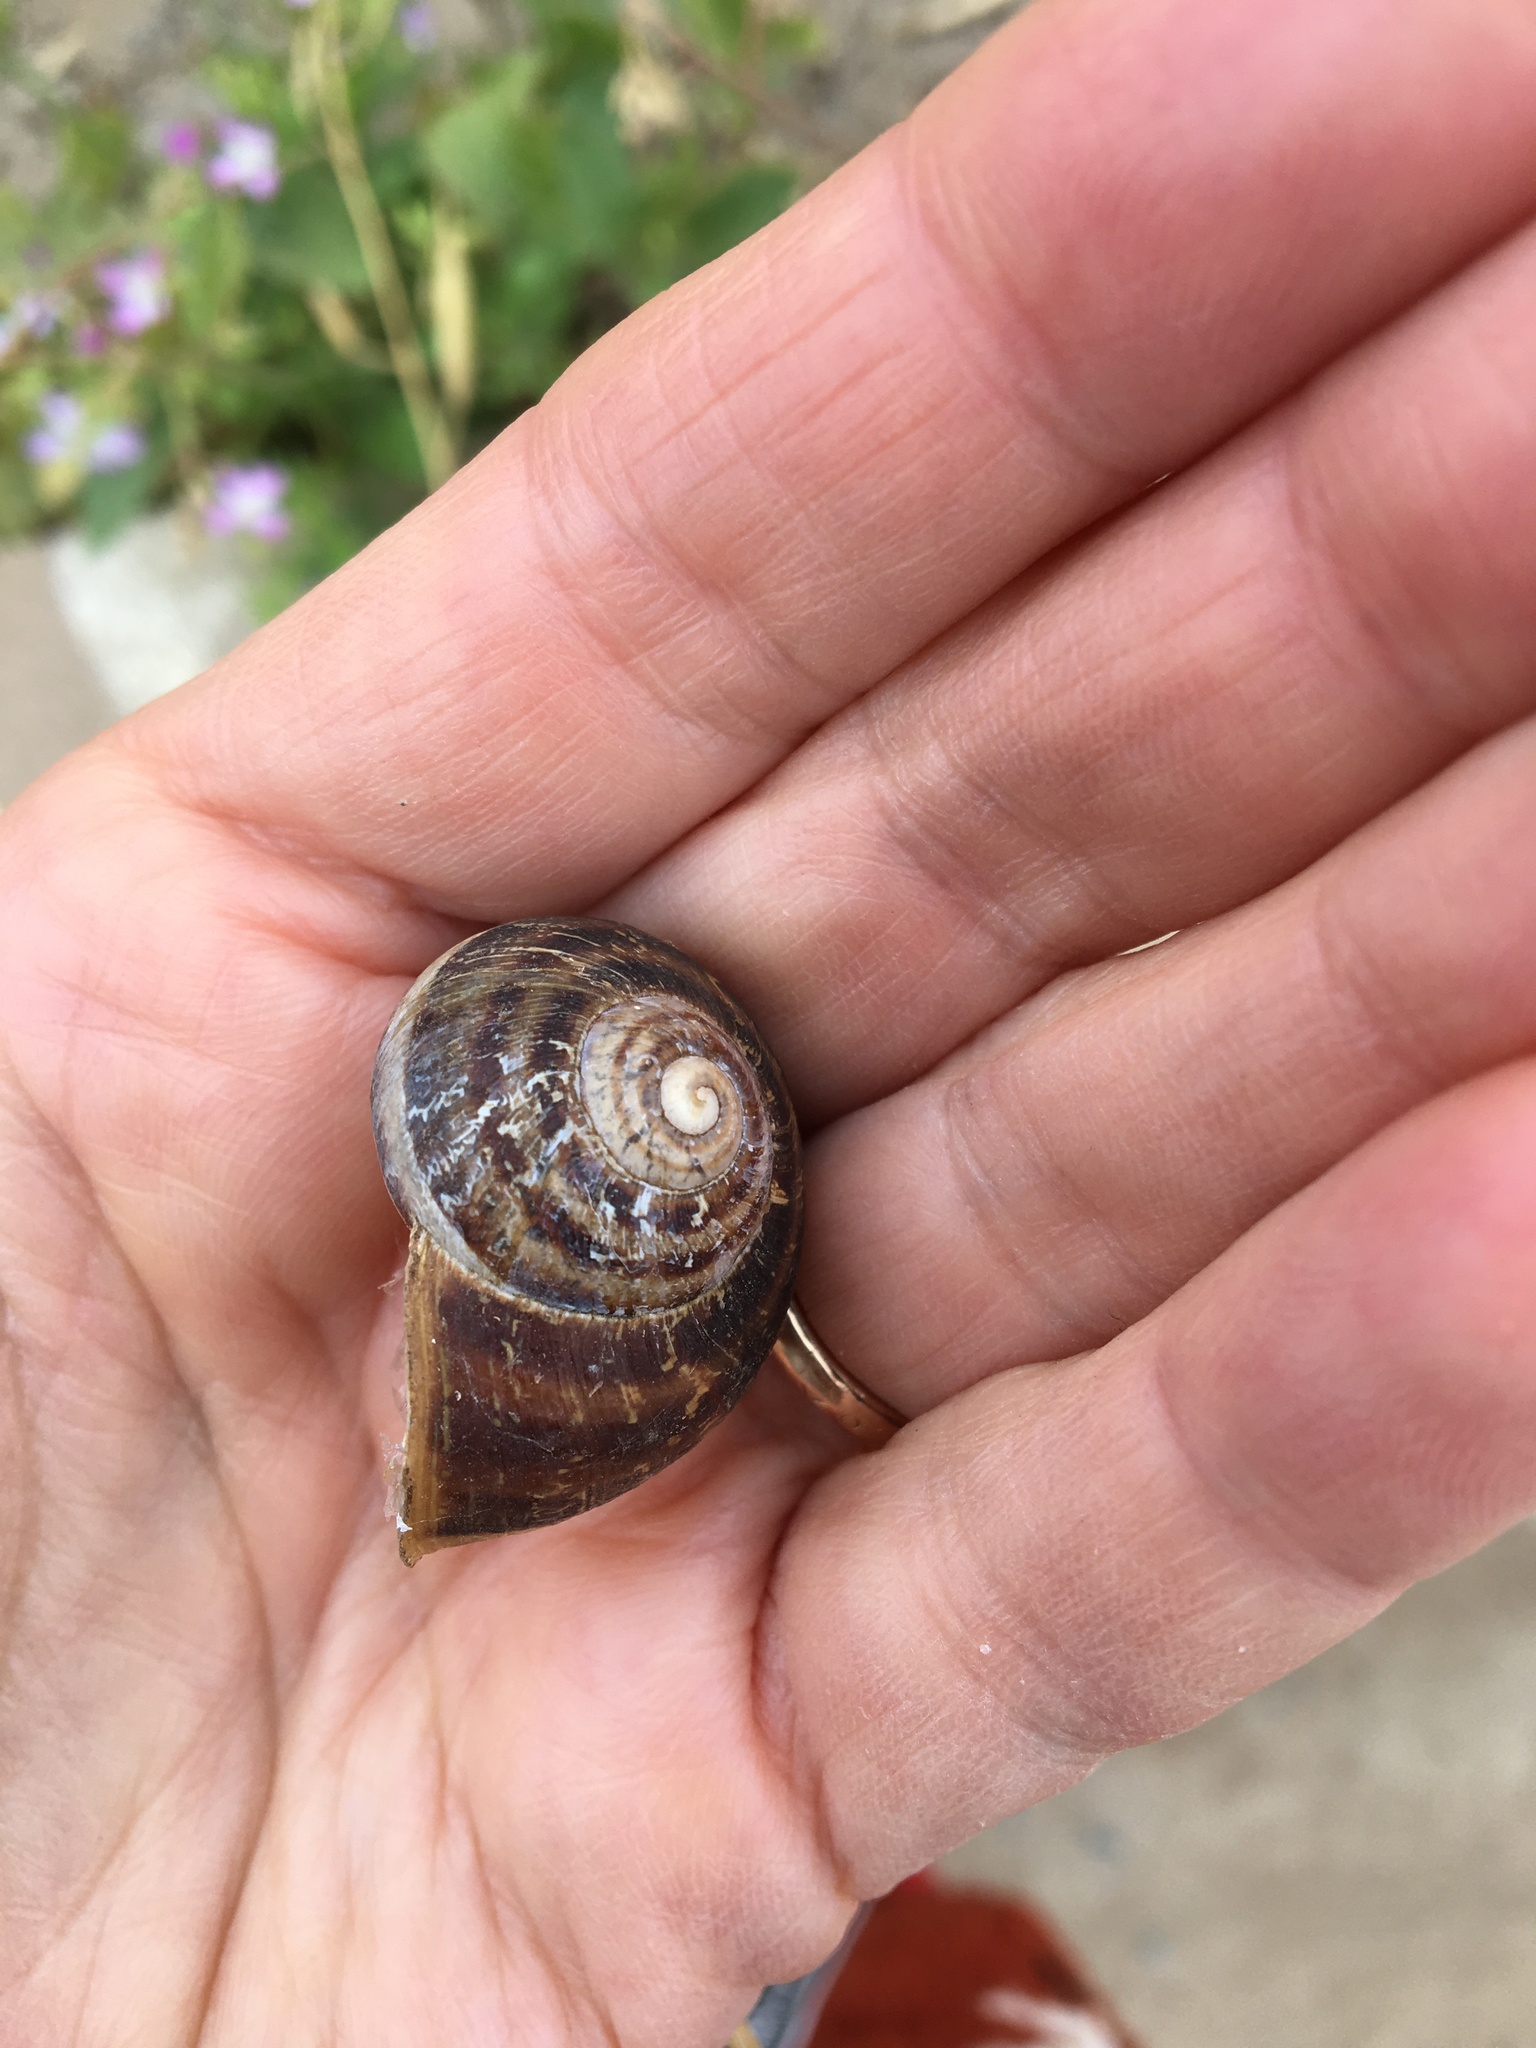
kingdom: Animalia
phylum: Mollusca
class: Gastropoda
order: Stylommatophora
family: Helicidae
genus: Cornu
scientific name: Cornu aspersum
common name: Brown garden snail
